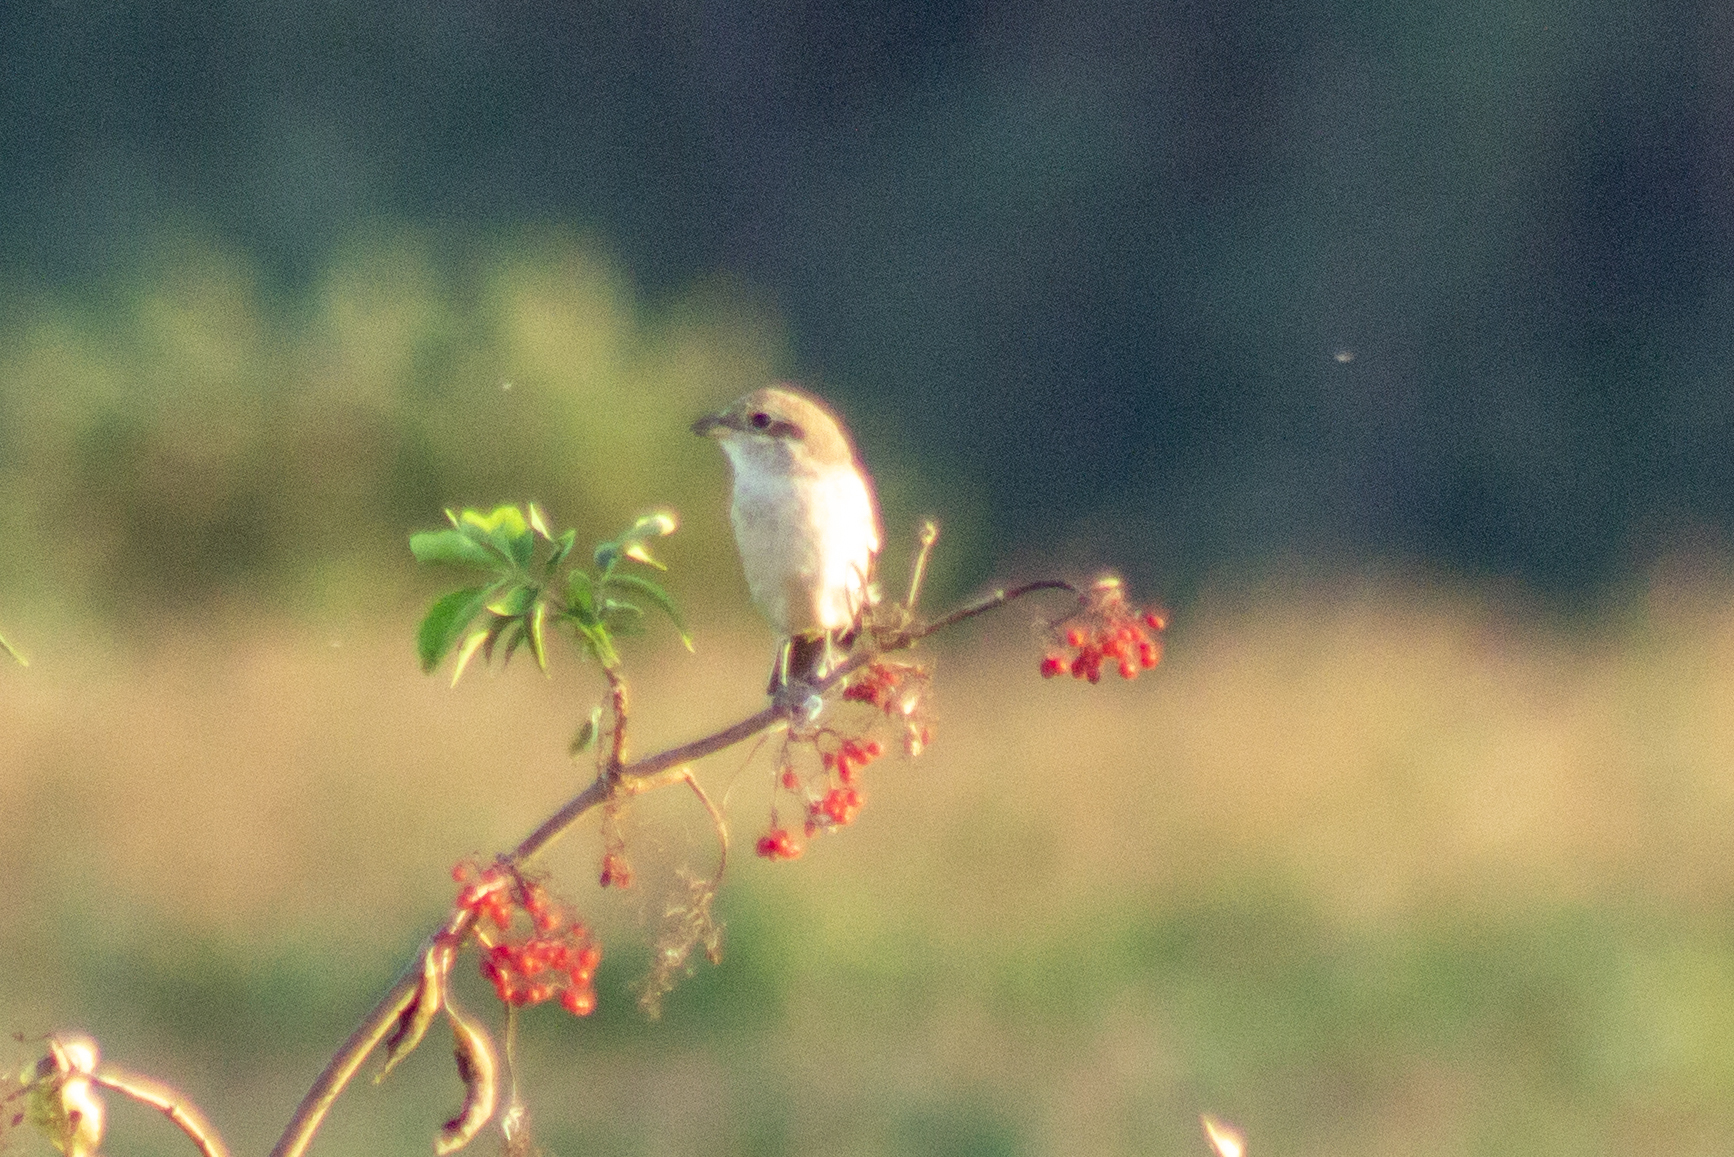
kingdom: Animalia
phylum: Chordata
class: Aves
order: Passeriformes
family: Laniidae
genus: Lanius
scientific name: Lanius collurio
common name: Red-backed shrike
